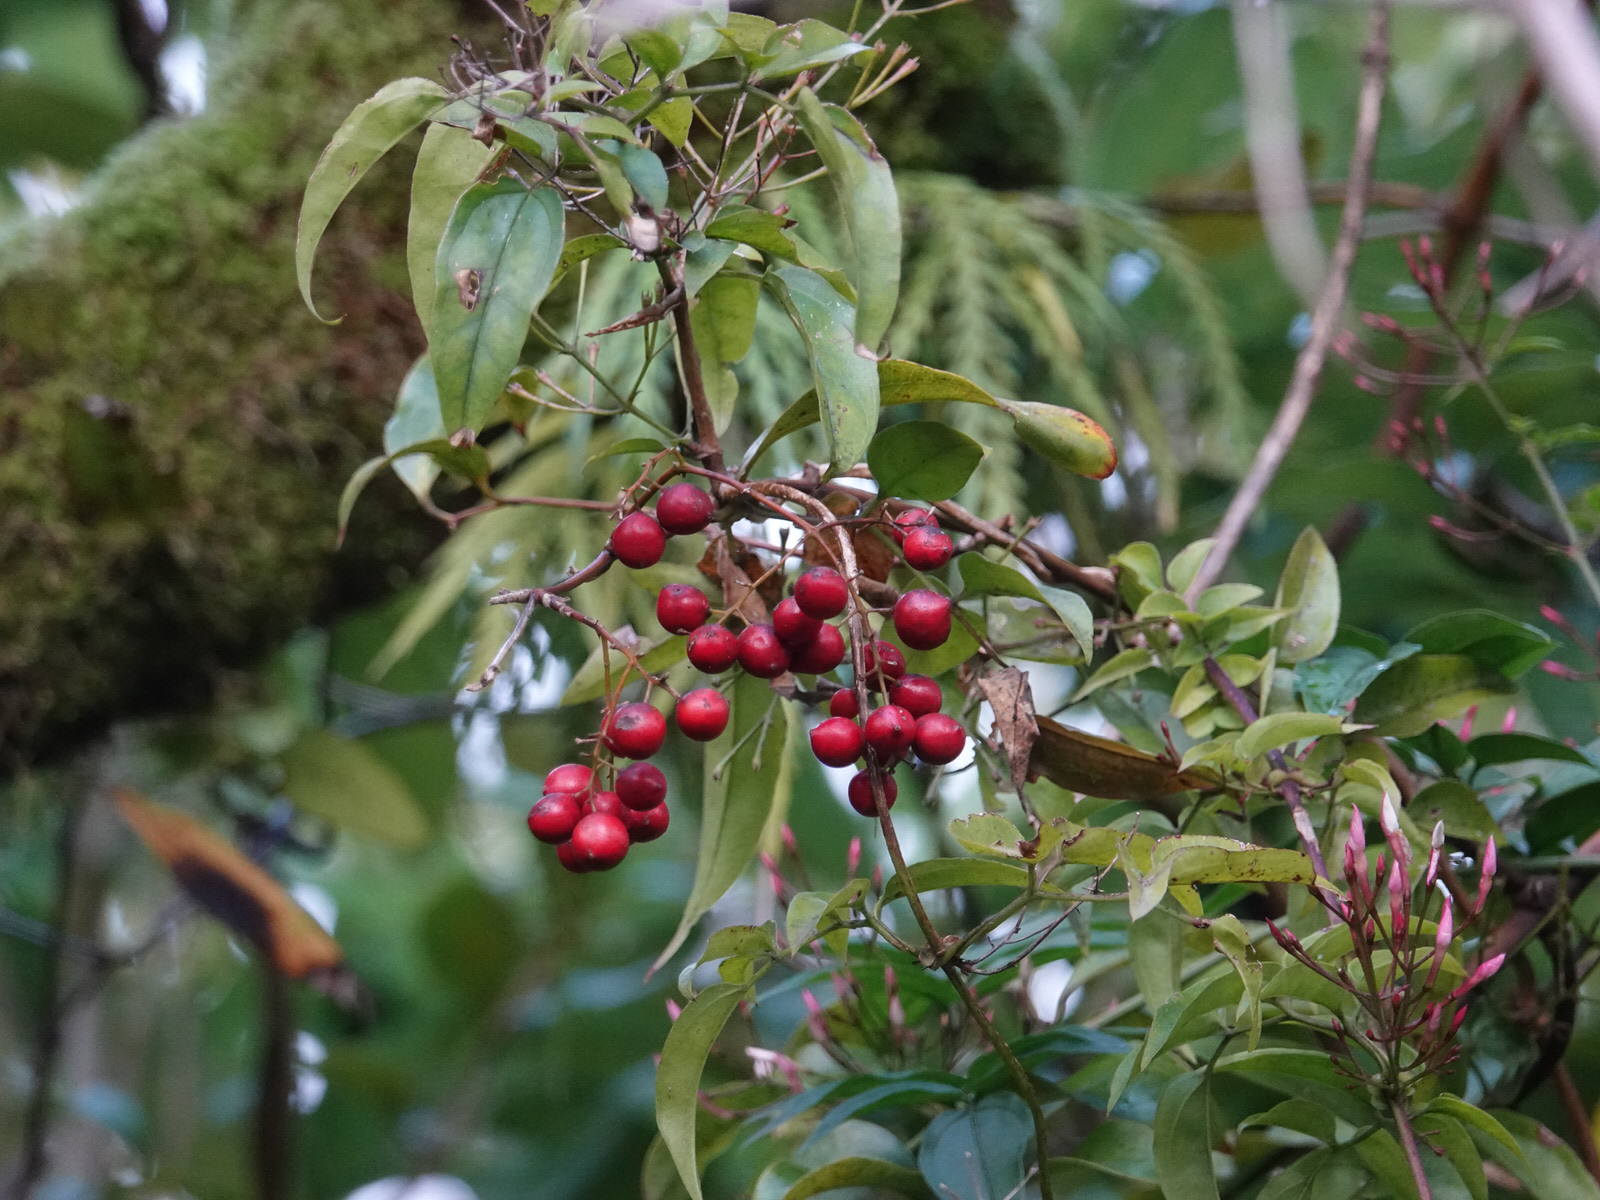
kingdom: Plantae
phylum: Tracheophyta
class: Liliopsida
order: Liliales
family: Ripogonaceae
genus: Ripogonum
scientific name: Ripogonum scandens
